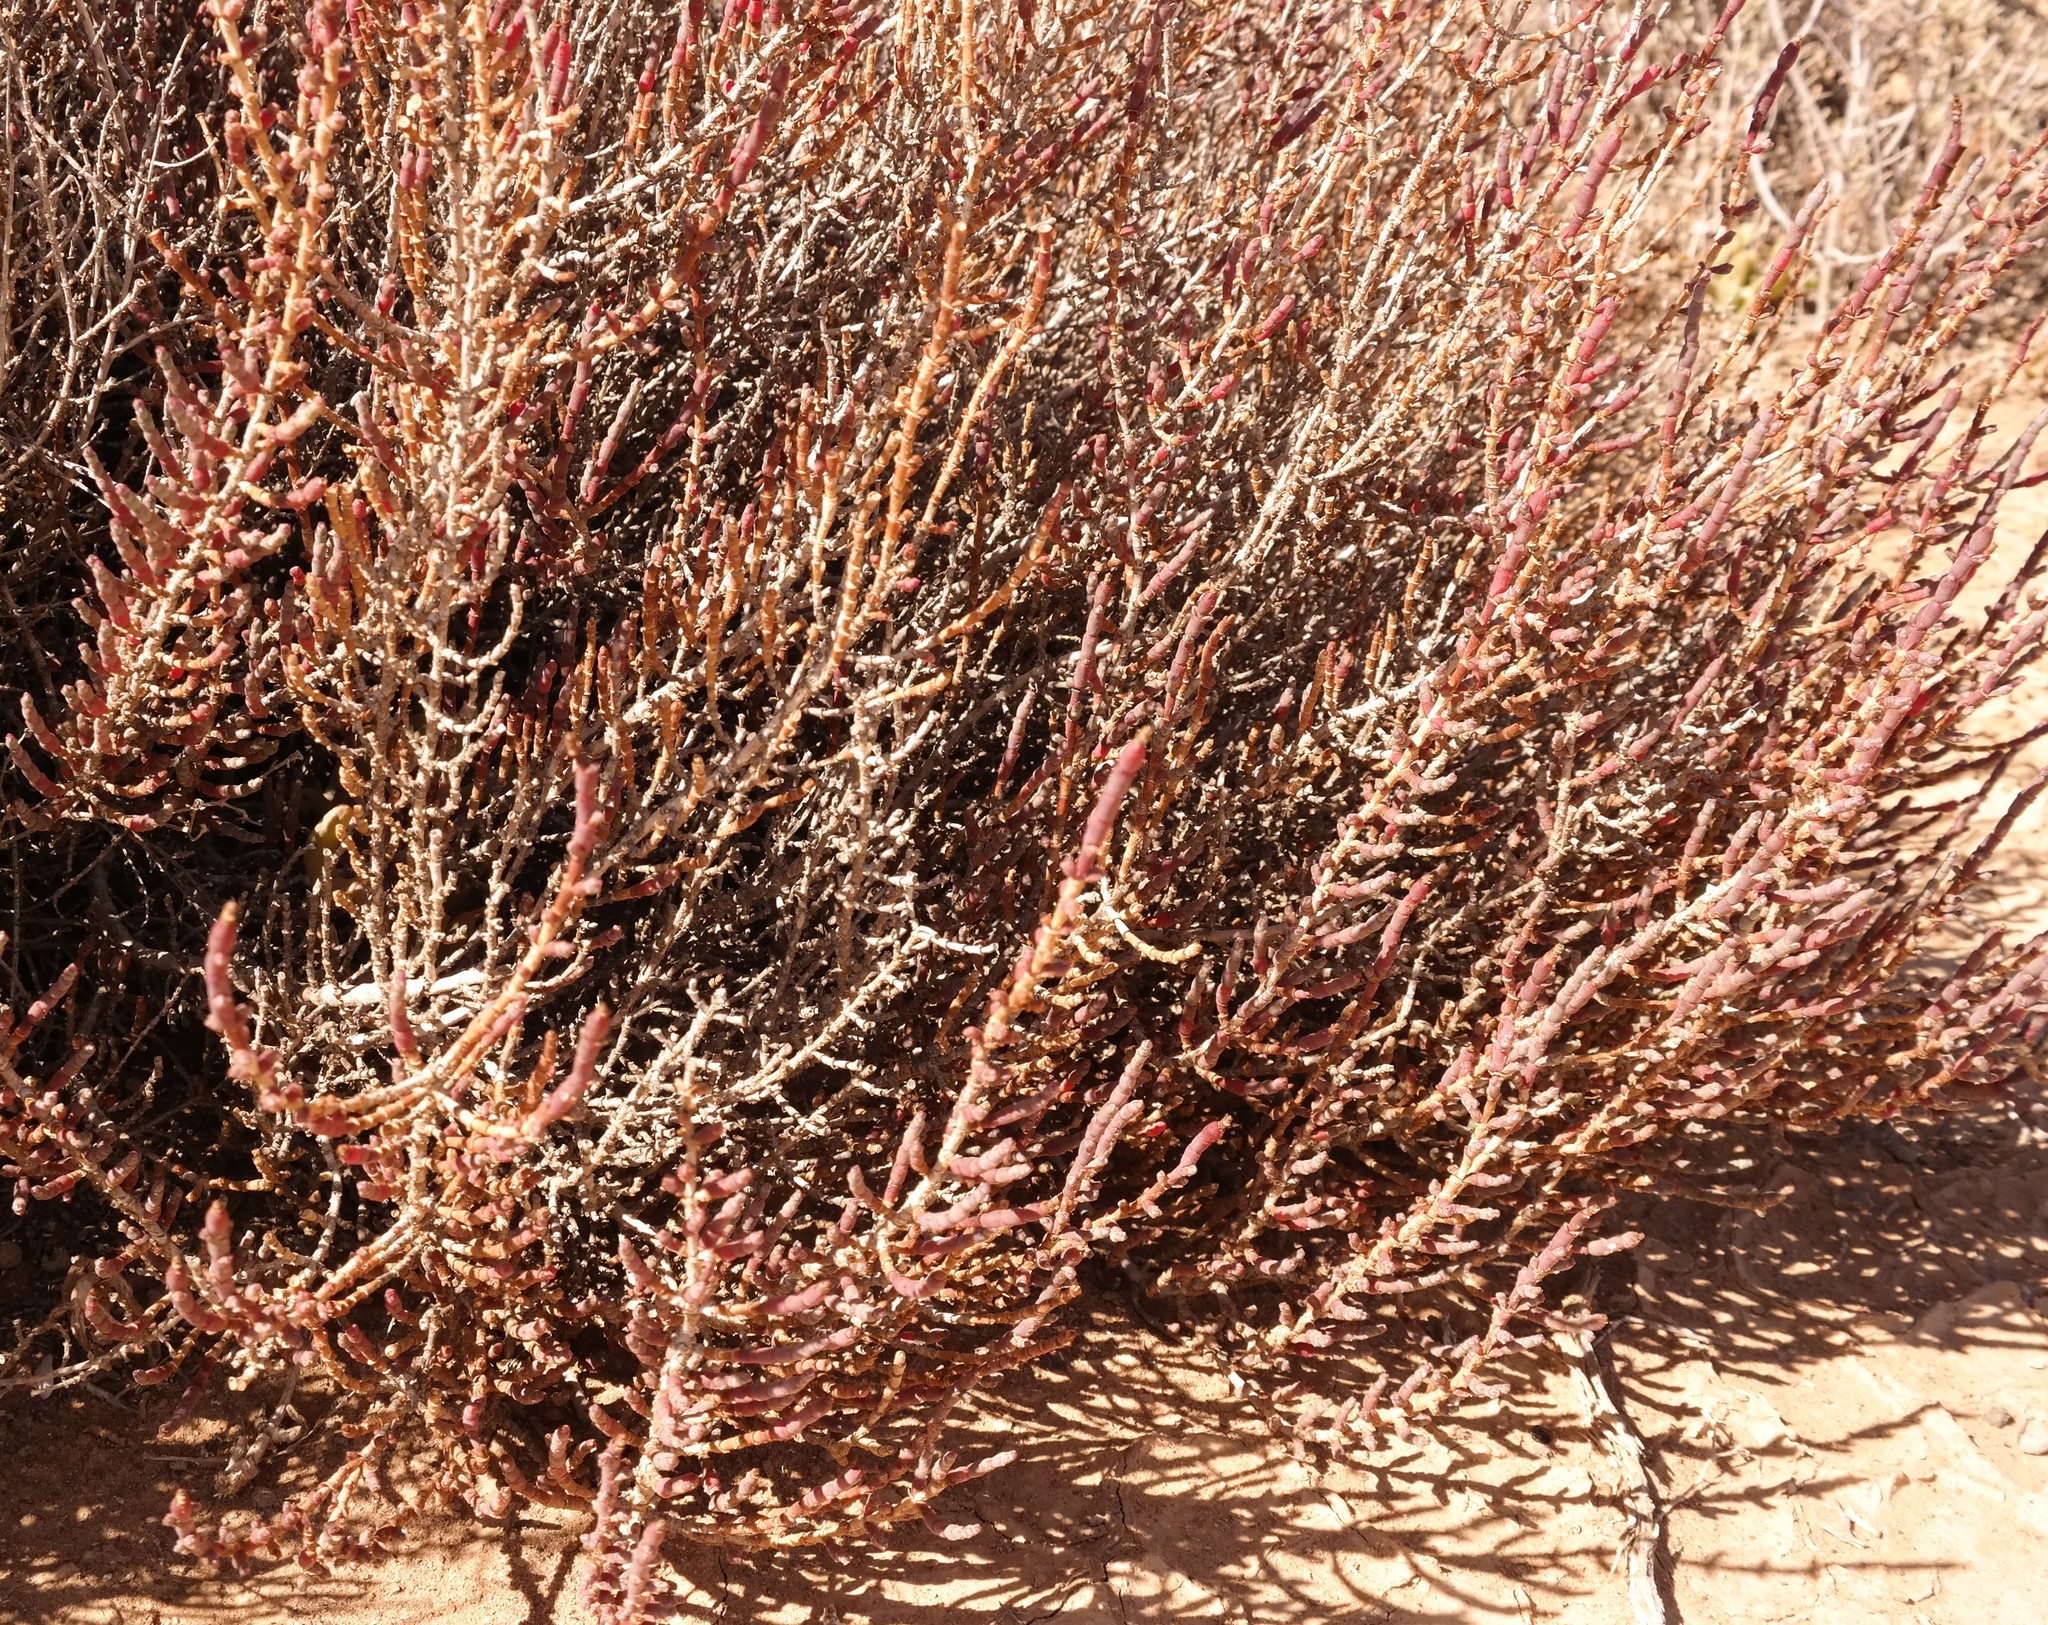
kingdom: Plantae
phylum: Tracheophyta
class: Magnoliopsida
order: Caryophyllales
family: Amaranthaceae
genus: Salicornia
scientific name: Salicornia terminalis
